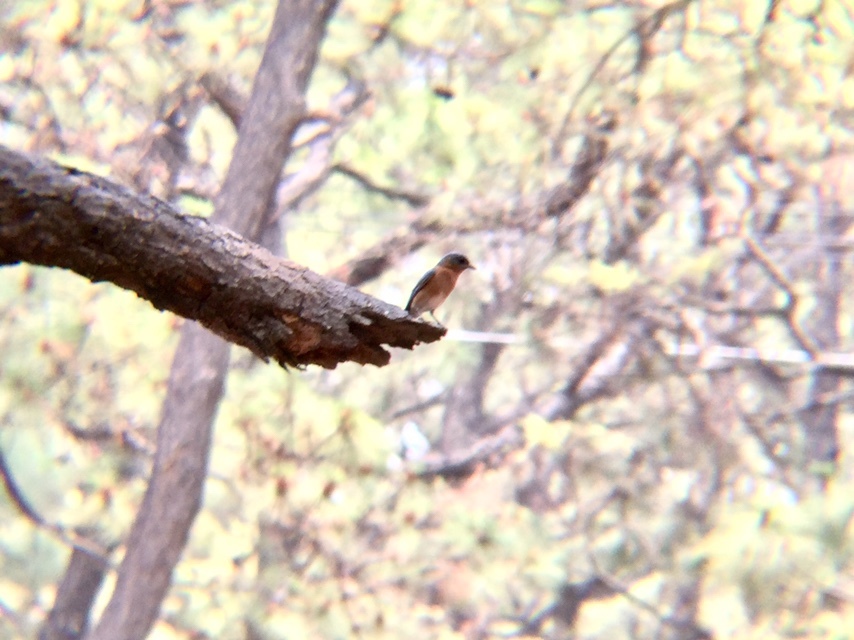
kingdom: Animalia
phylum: Chordata
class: Aves
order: Passeriformes
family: Turdidae
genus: Sialia
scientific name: Sialia sialis
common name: Eastern bluebird
